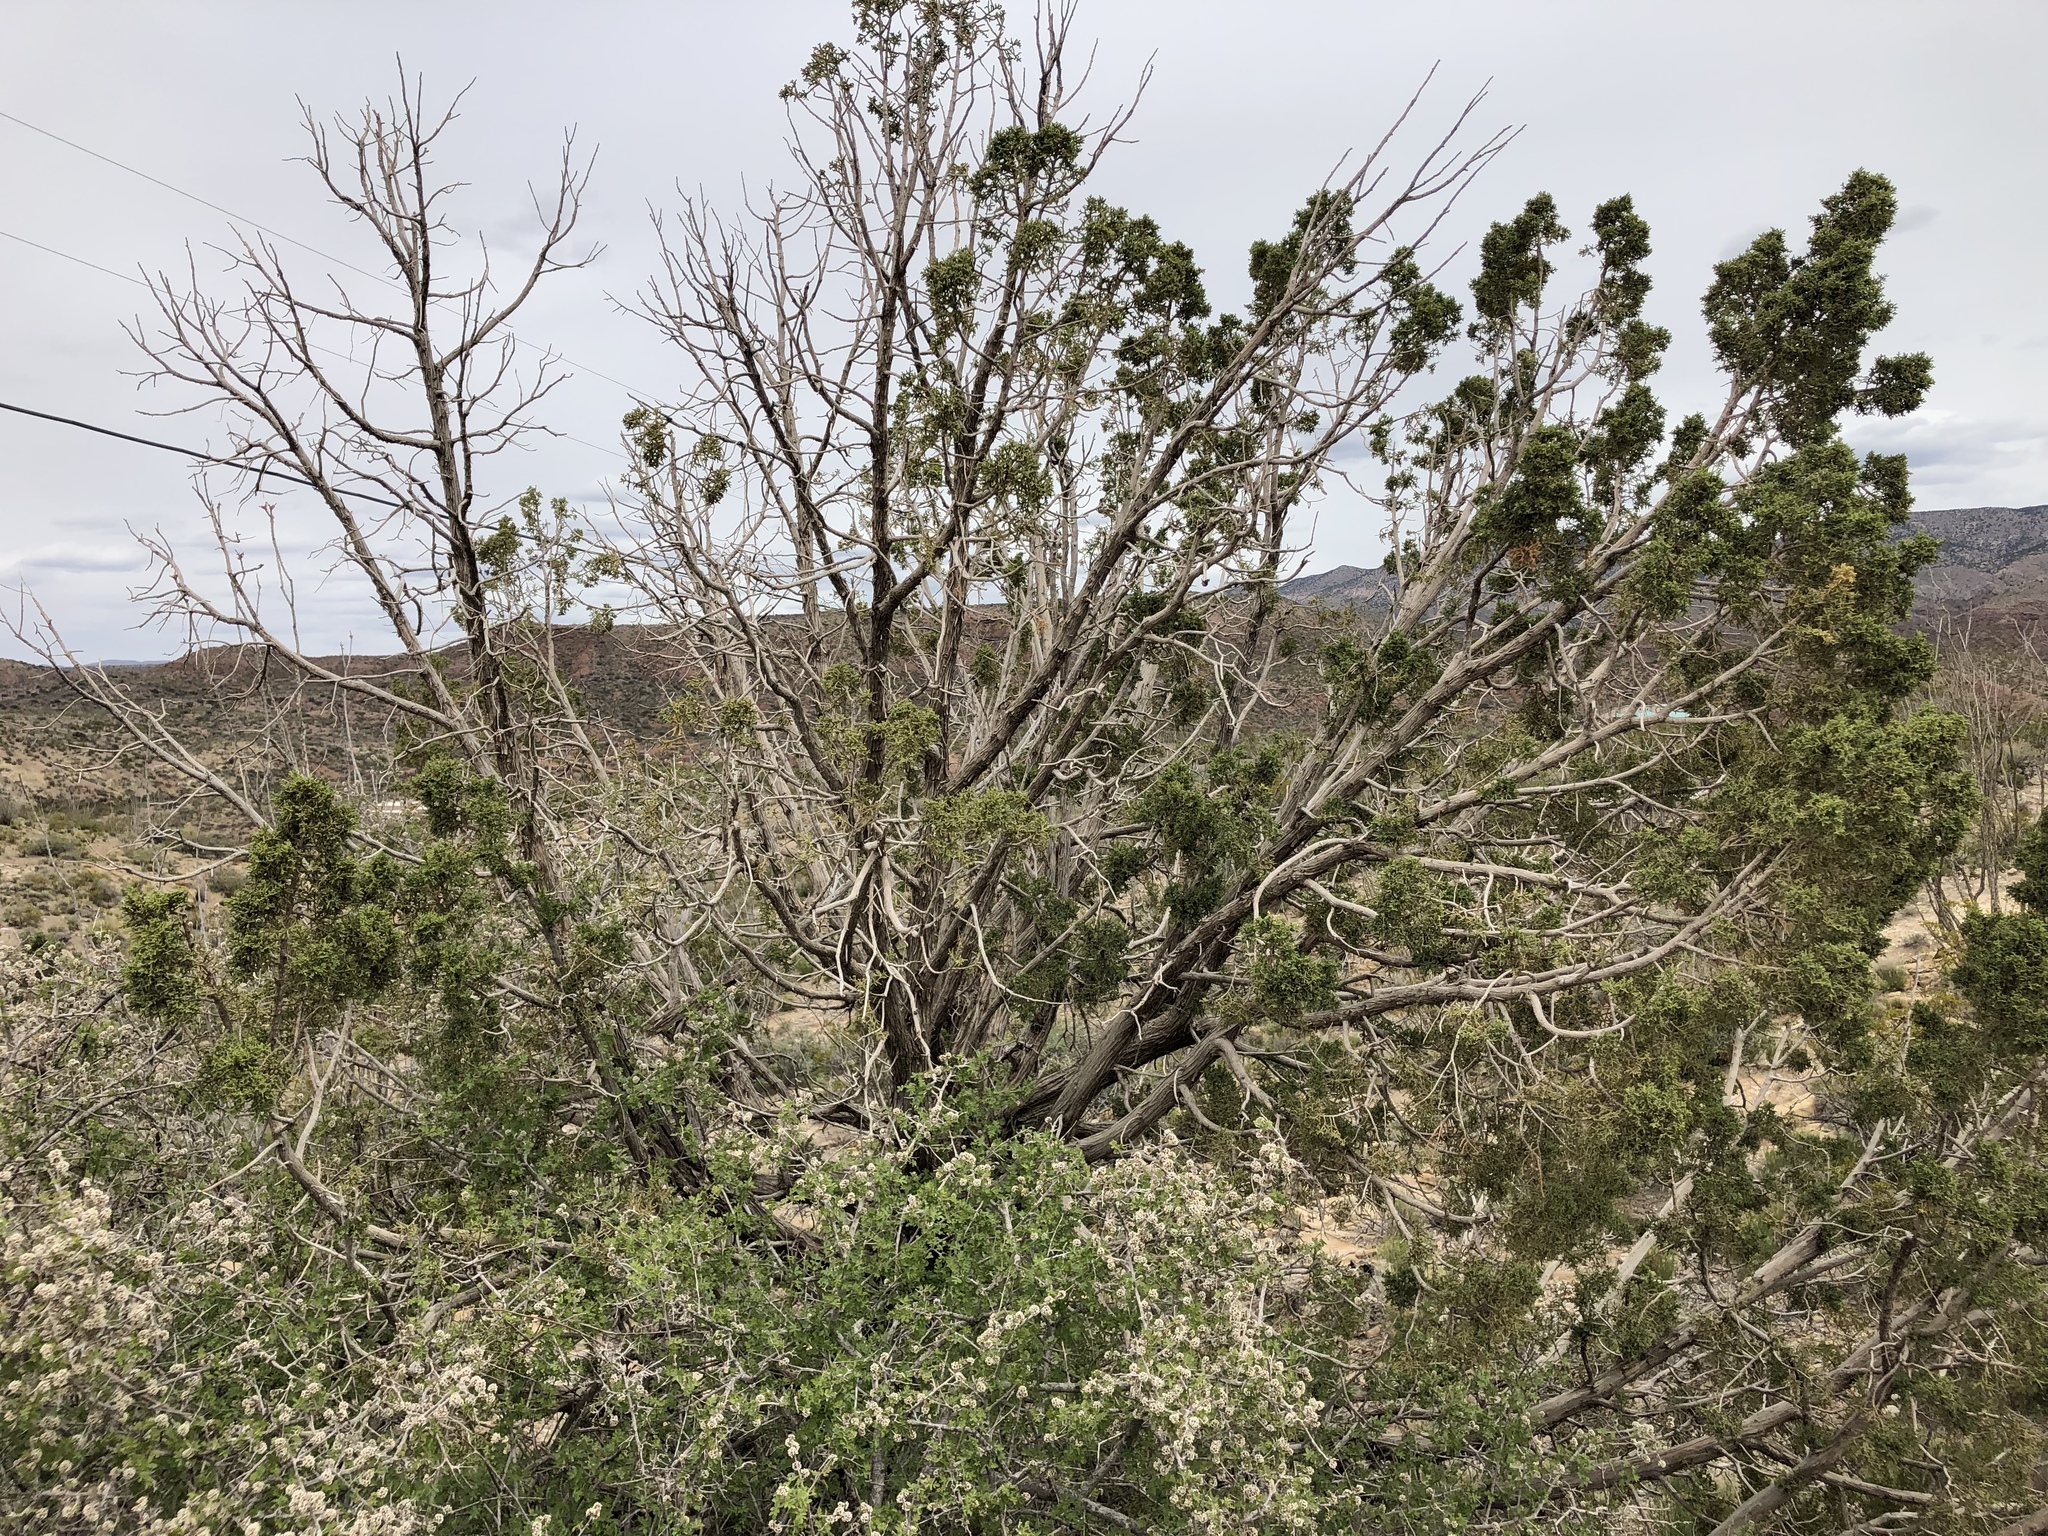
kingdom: Plantae
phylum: Tracheophyta
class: Pinopsida
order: Pinales
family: Cupressaceae
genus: Juniperus
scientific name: Juniperus monosperma
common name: One-seed juniper
